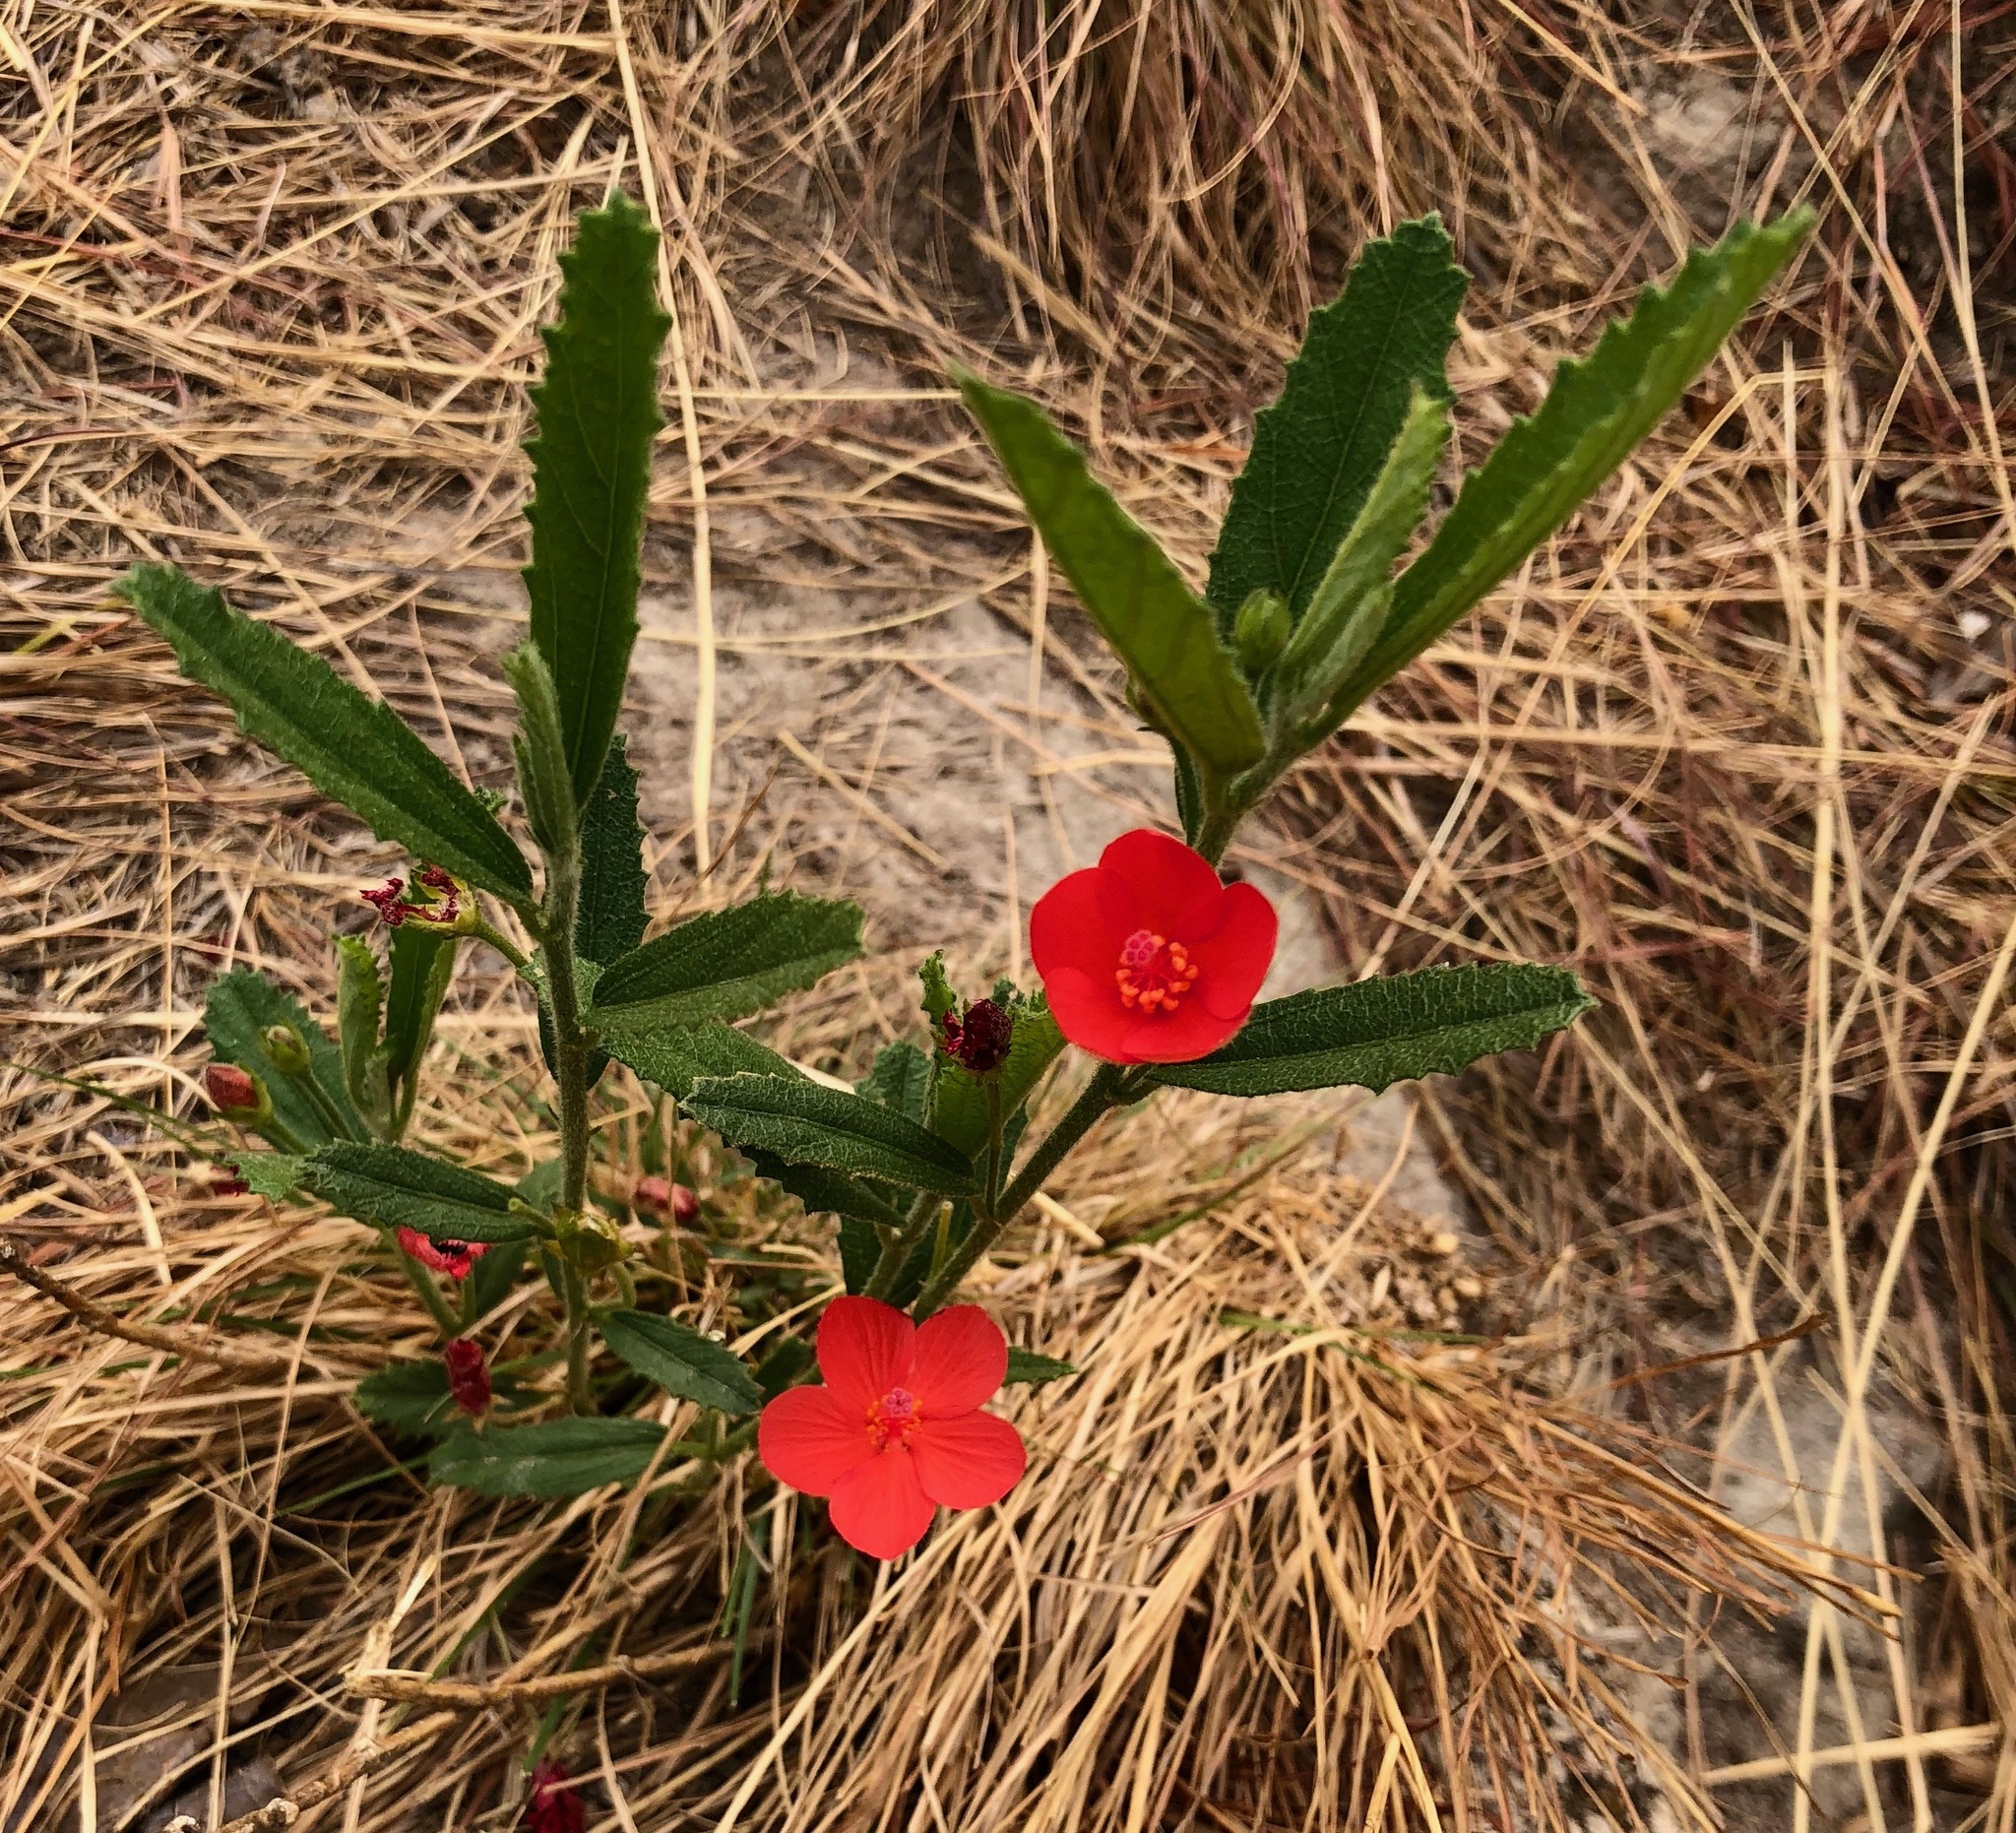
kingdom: Plantae
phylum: Tracheophyta
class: Magnoliopsida
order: Malvales
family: Malvaceae
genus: Hibiscus
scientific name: Hibiscus rhodanthus
